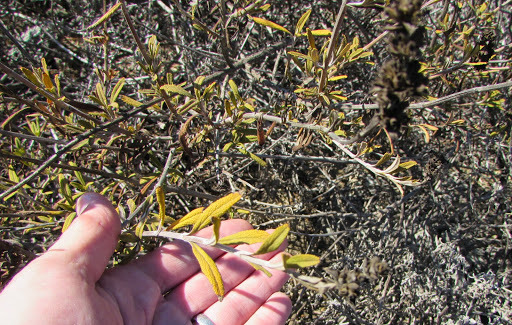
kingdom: Plantae
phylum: Tracheophyta
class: Magnoliopsida
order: Lamiales
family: Lamiaceae
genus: Salvia
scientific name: Salvia mellifera
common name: Black sage
